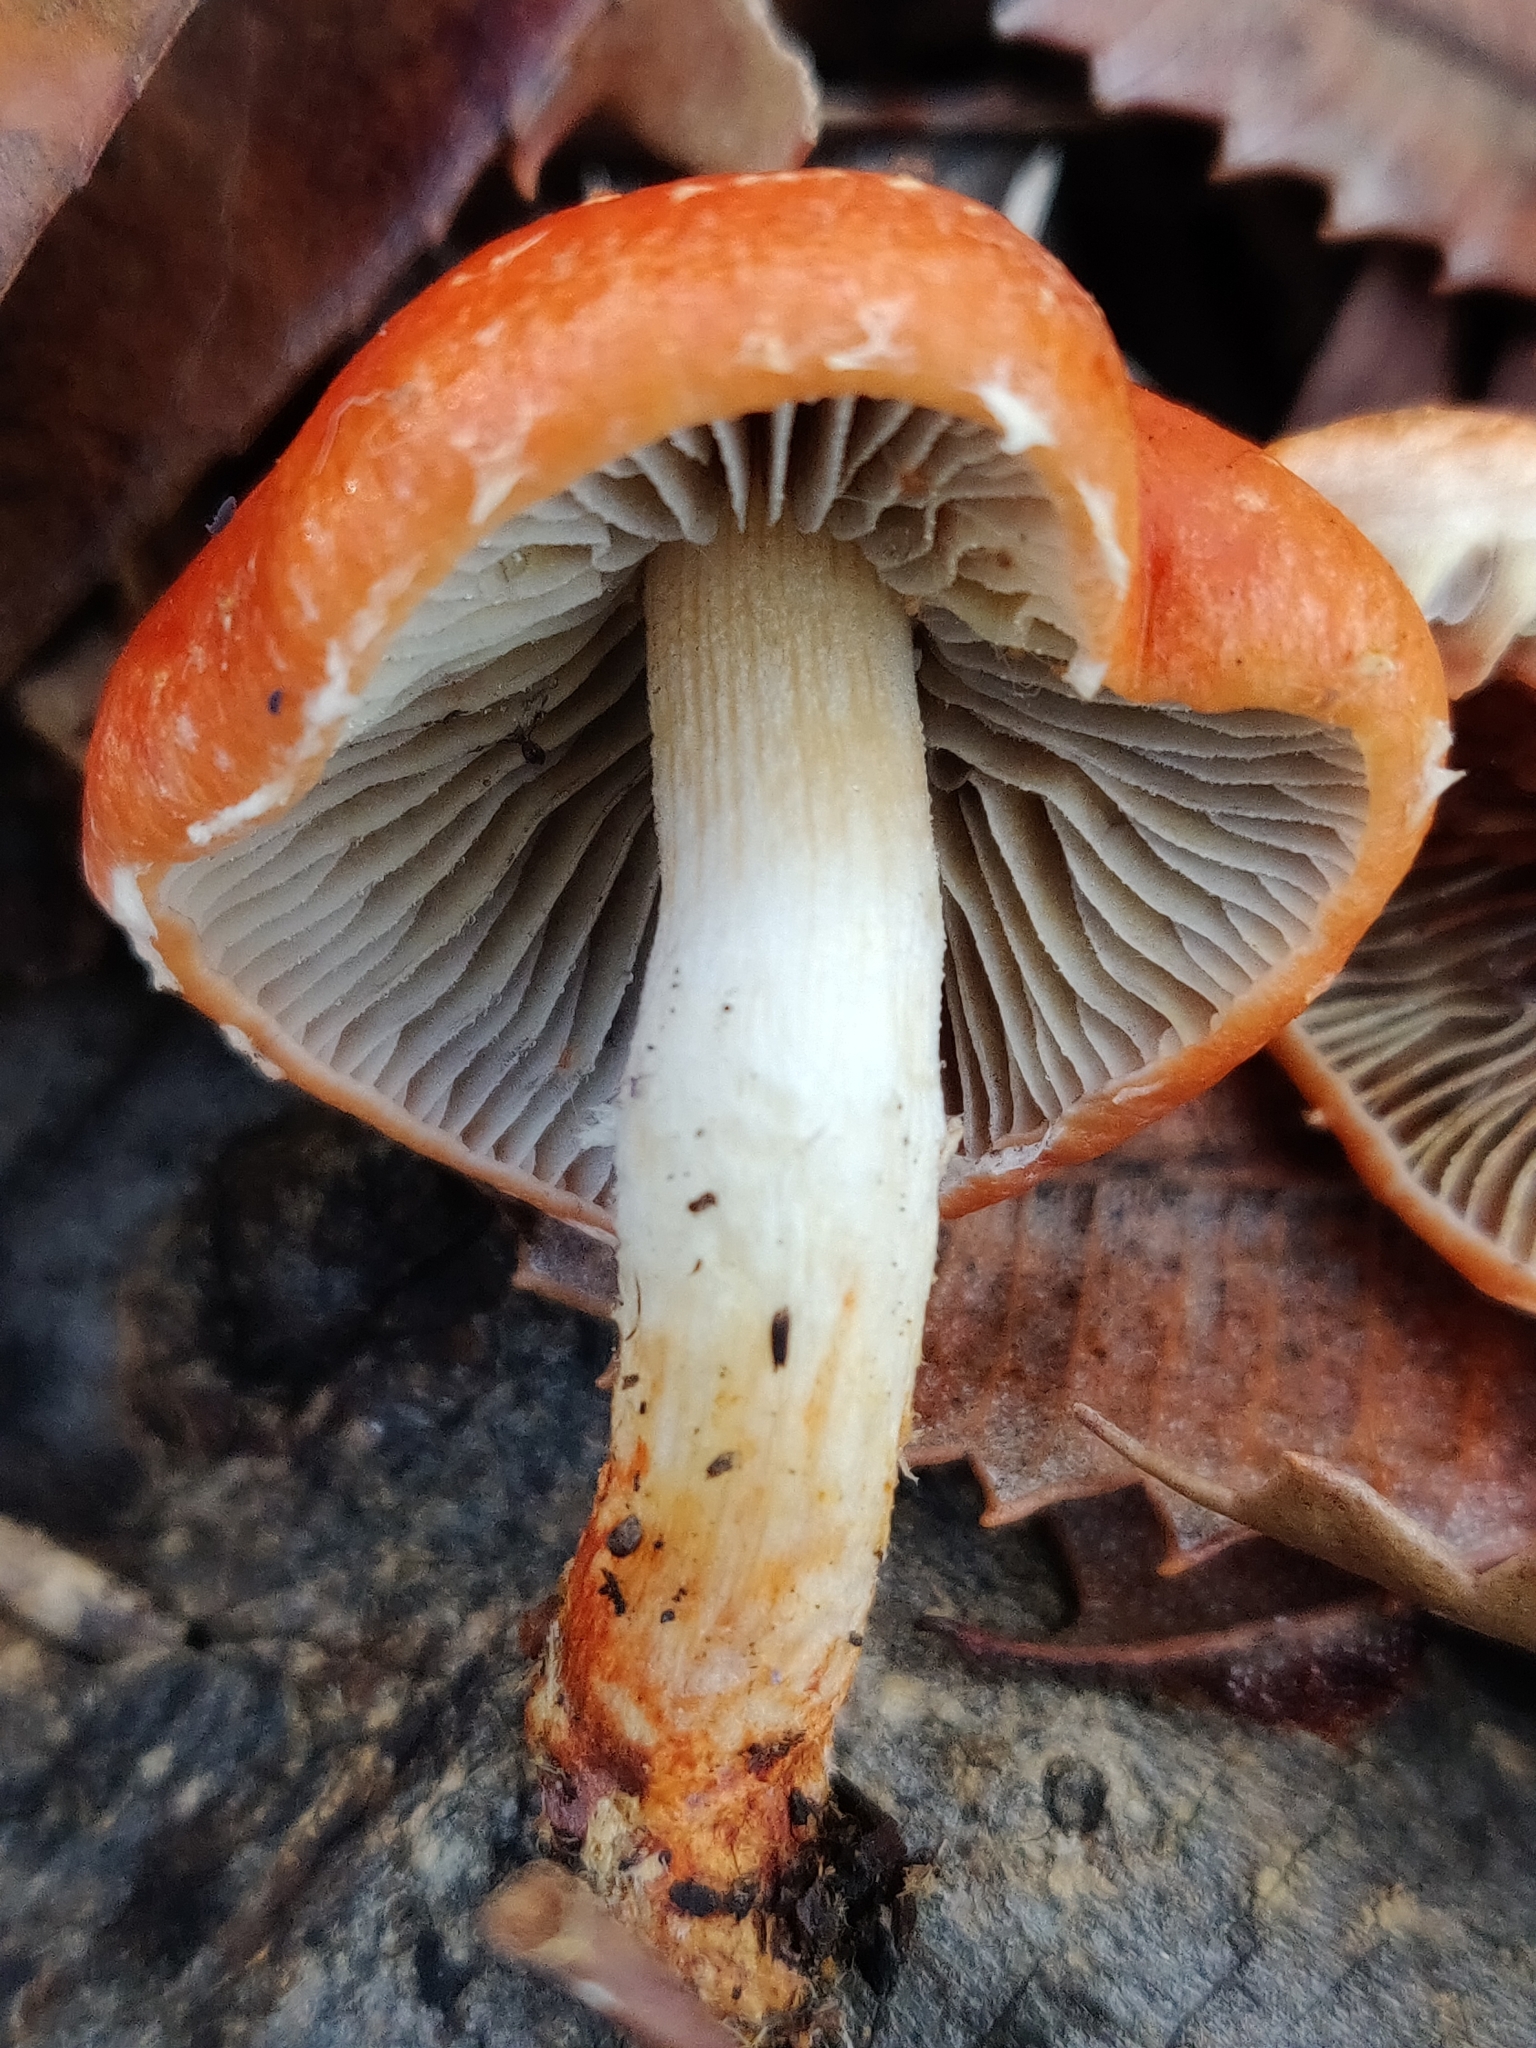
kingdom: Fungi
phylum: Basidiomycota
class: Agaricomycetes
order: Agaricales
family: Strophariaceae
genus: Leratiomyces
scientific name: Leratiomyces ceres
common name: Redlead roundhead
